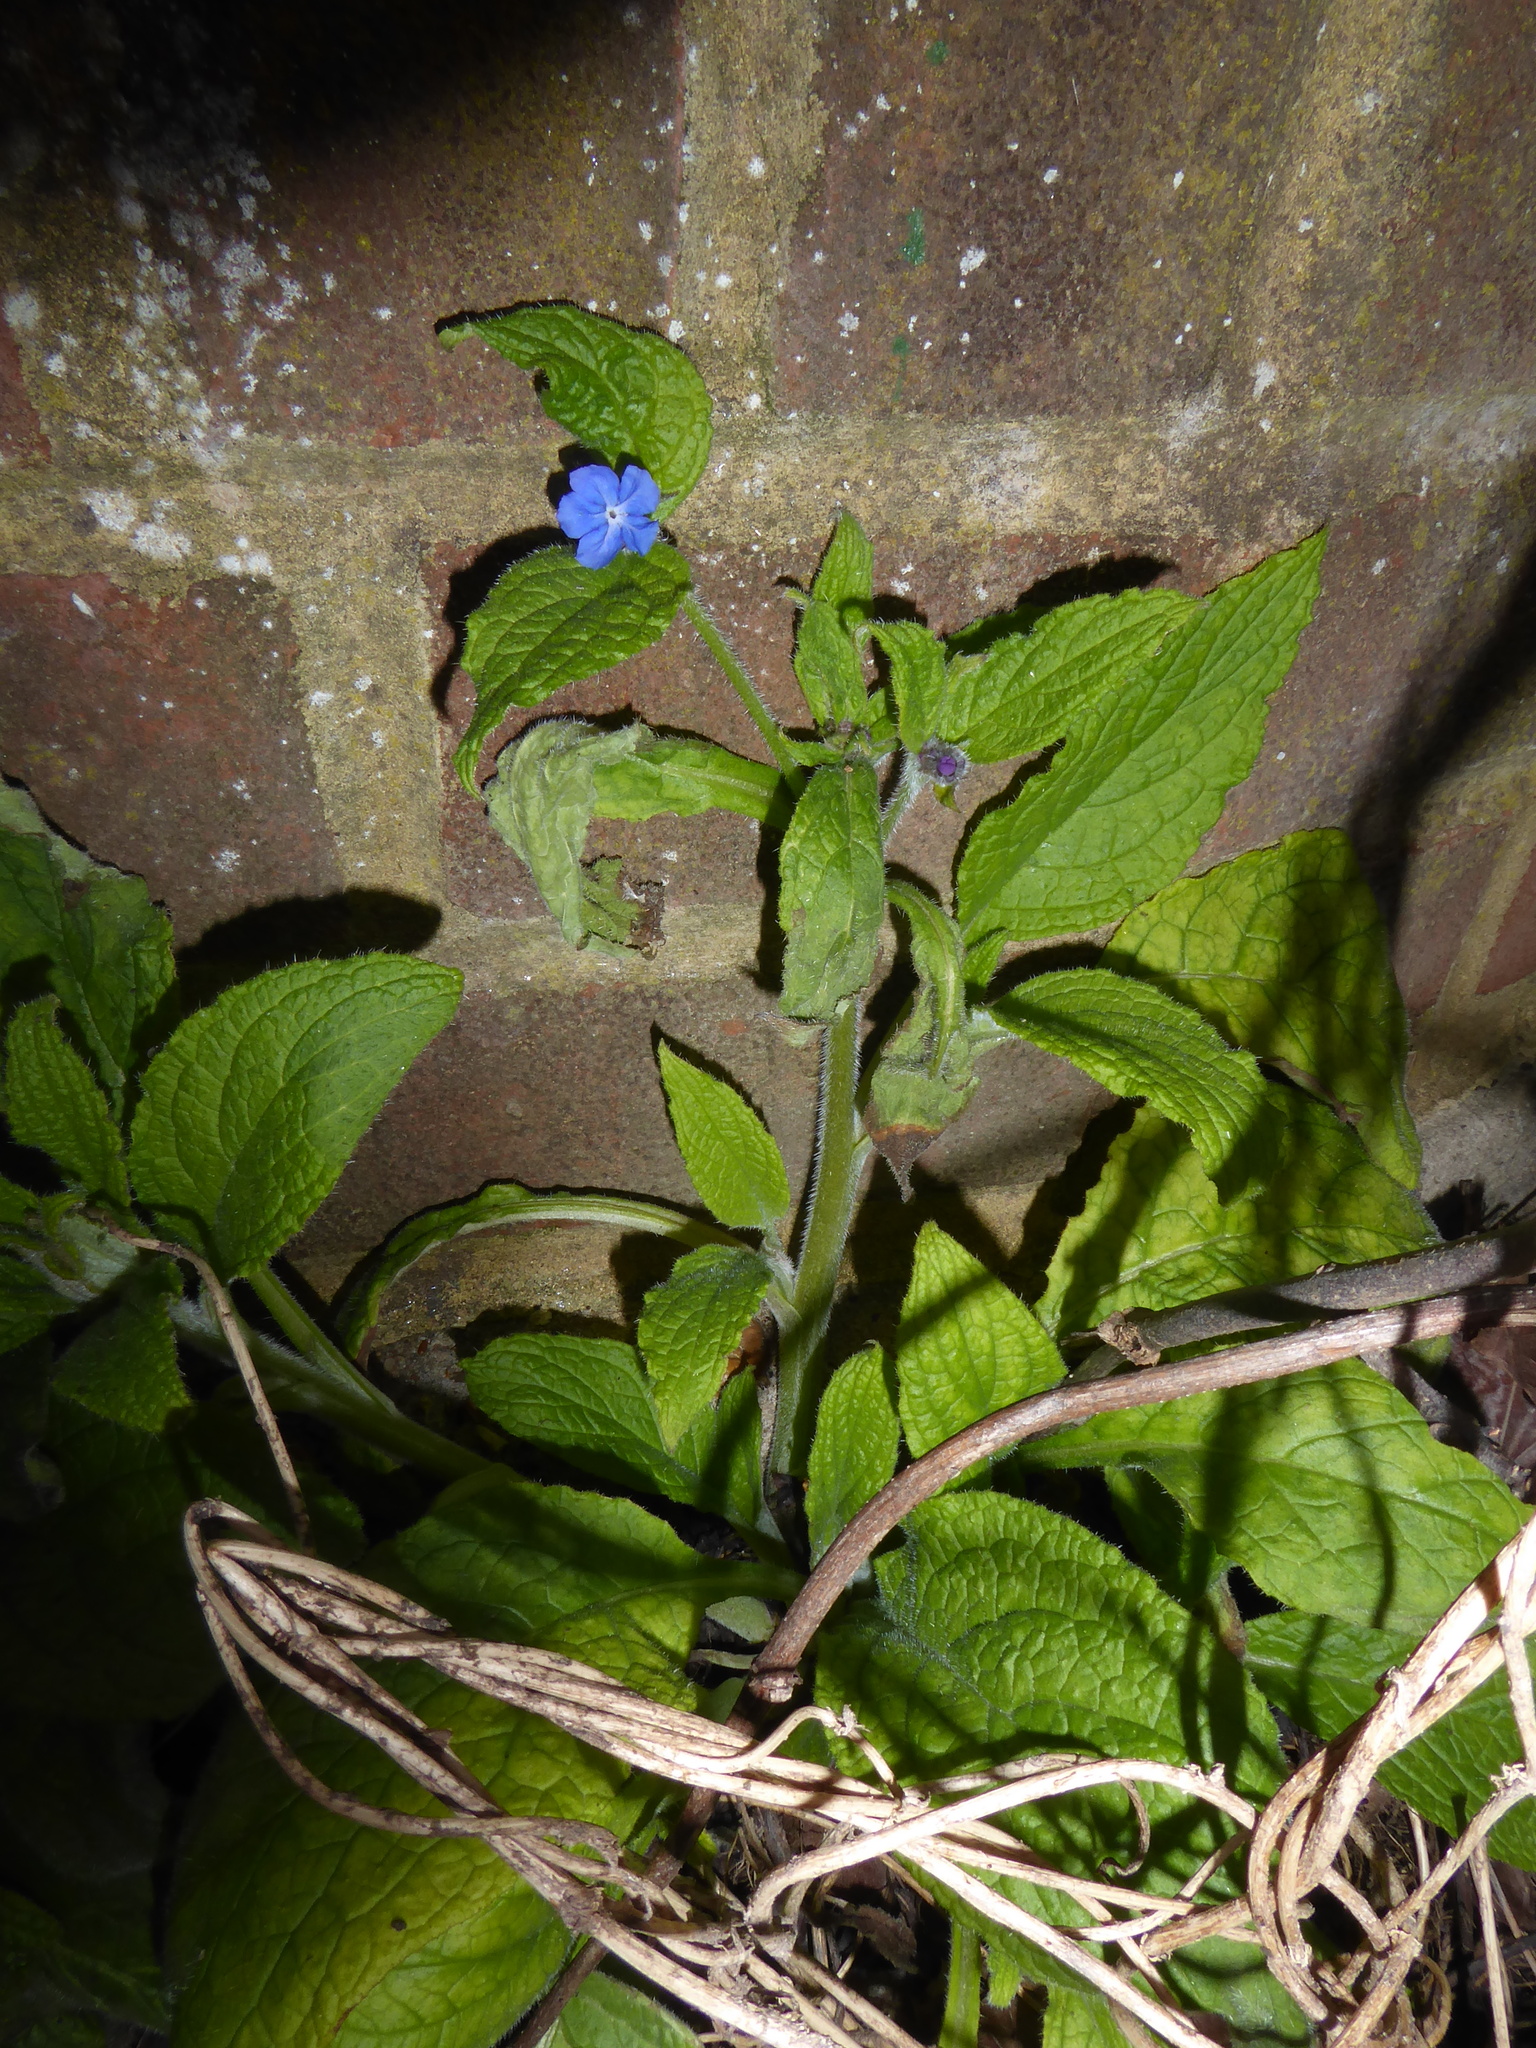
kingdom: Plantae
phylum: Tracheophyta
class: Magnoliopsida
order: Boraginales
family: Boraginaceae
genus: Pentaglottis
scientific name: Pentaglottis sempervirens
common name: Green alkanet
